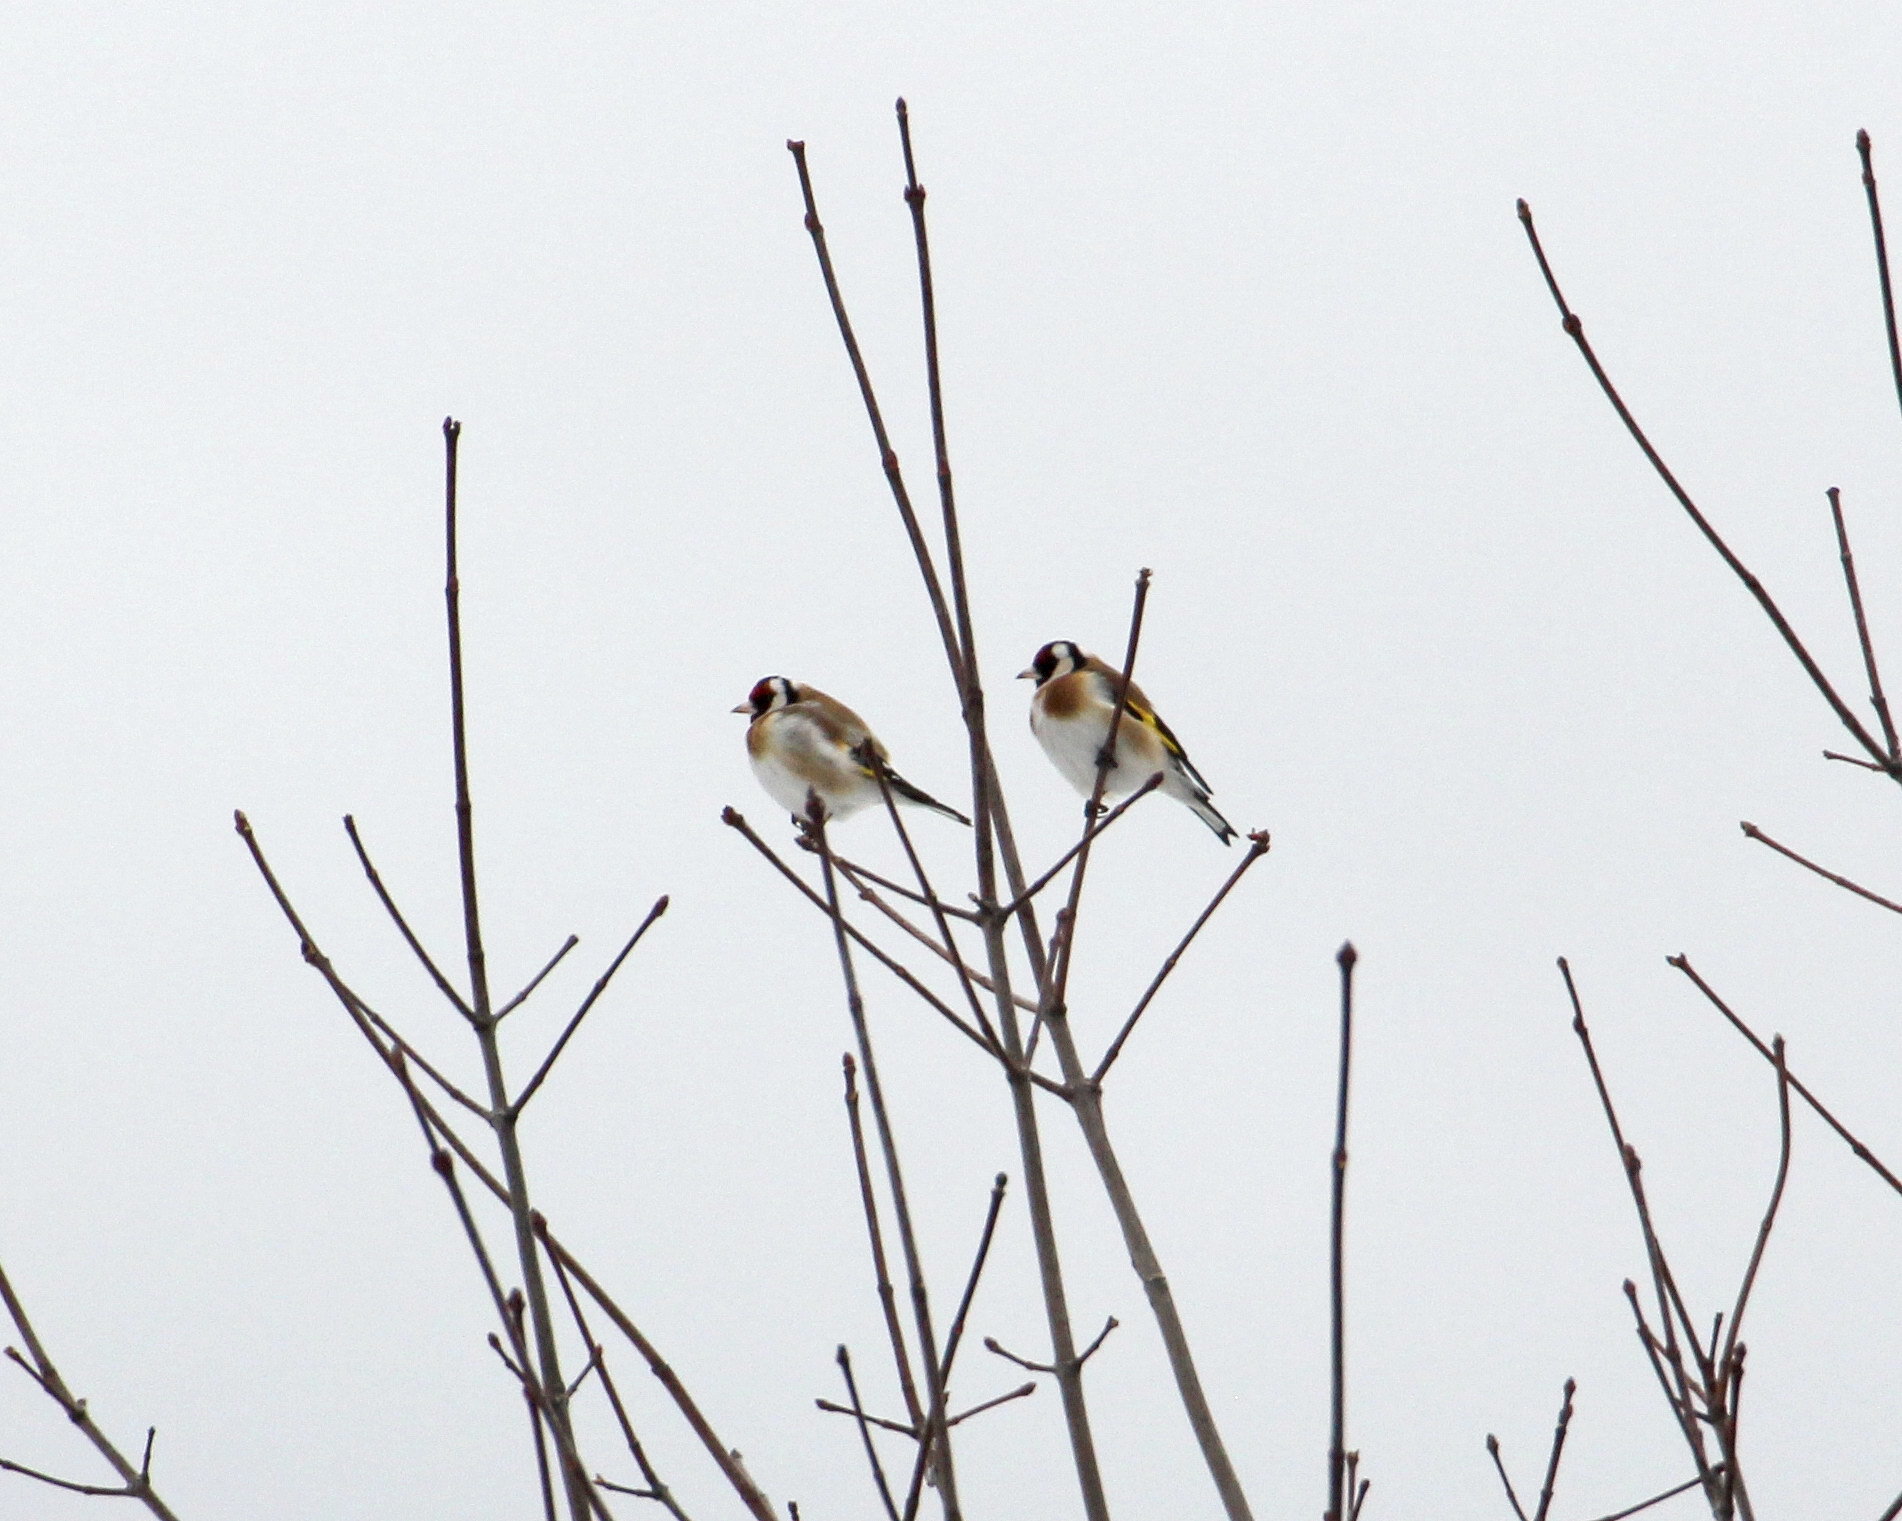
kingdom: Animalia
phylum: Chordata
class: Aves
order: Passeriformes
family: Fringillidae
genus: Carduelis
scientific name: Carduelis carduelis
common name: European goldfinch
